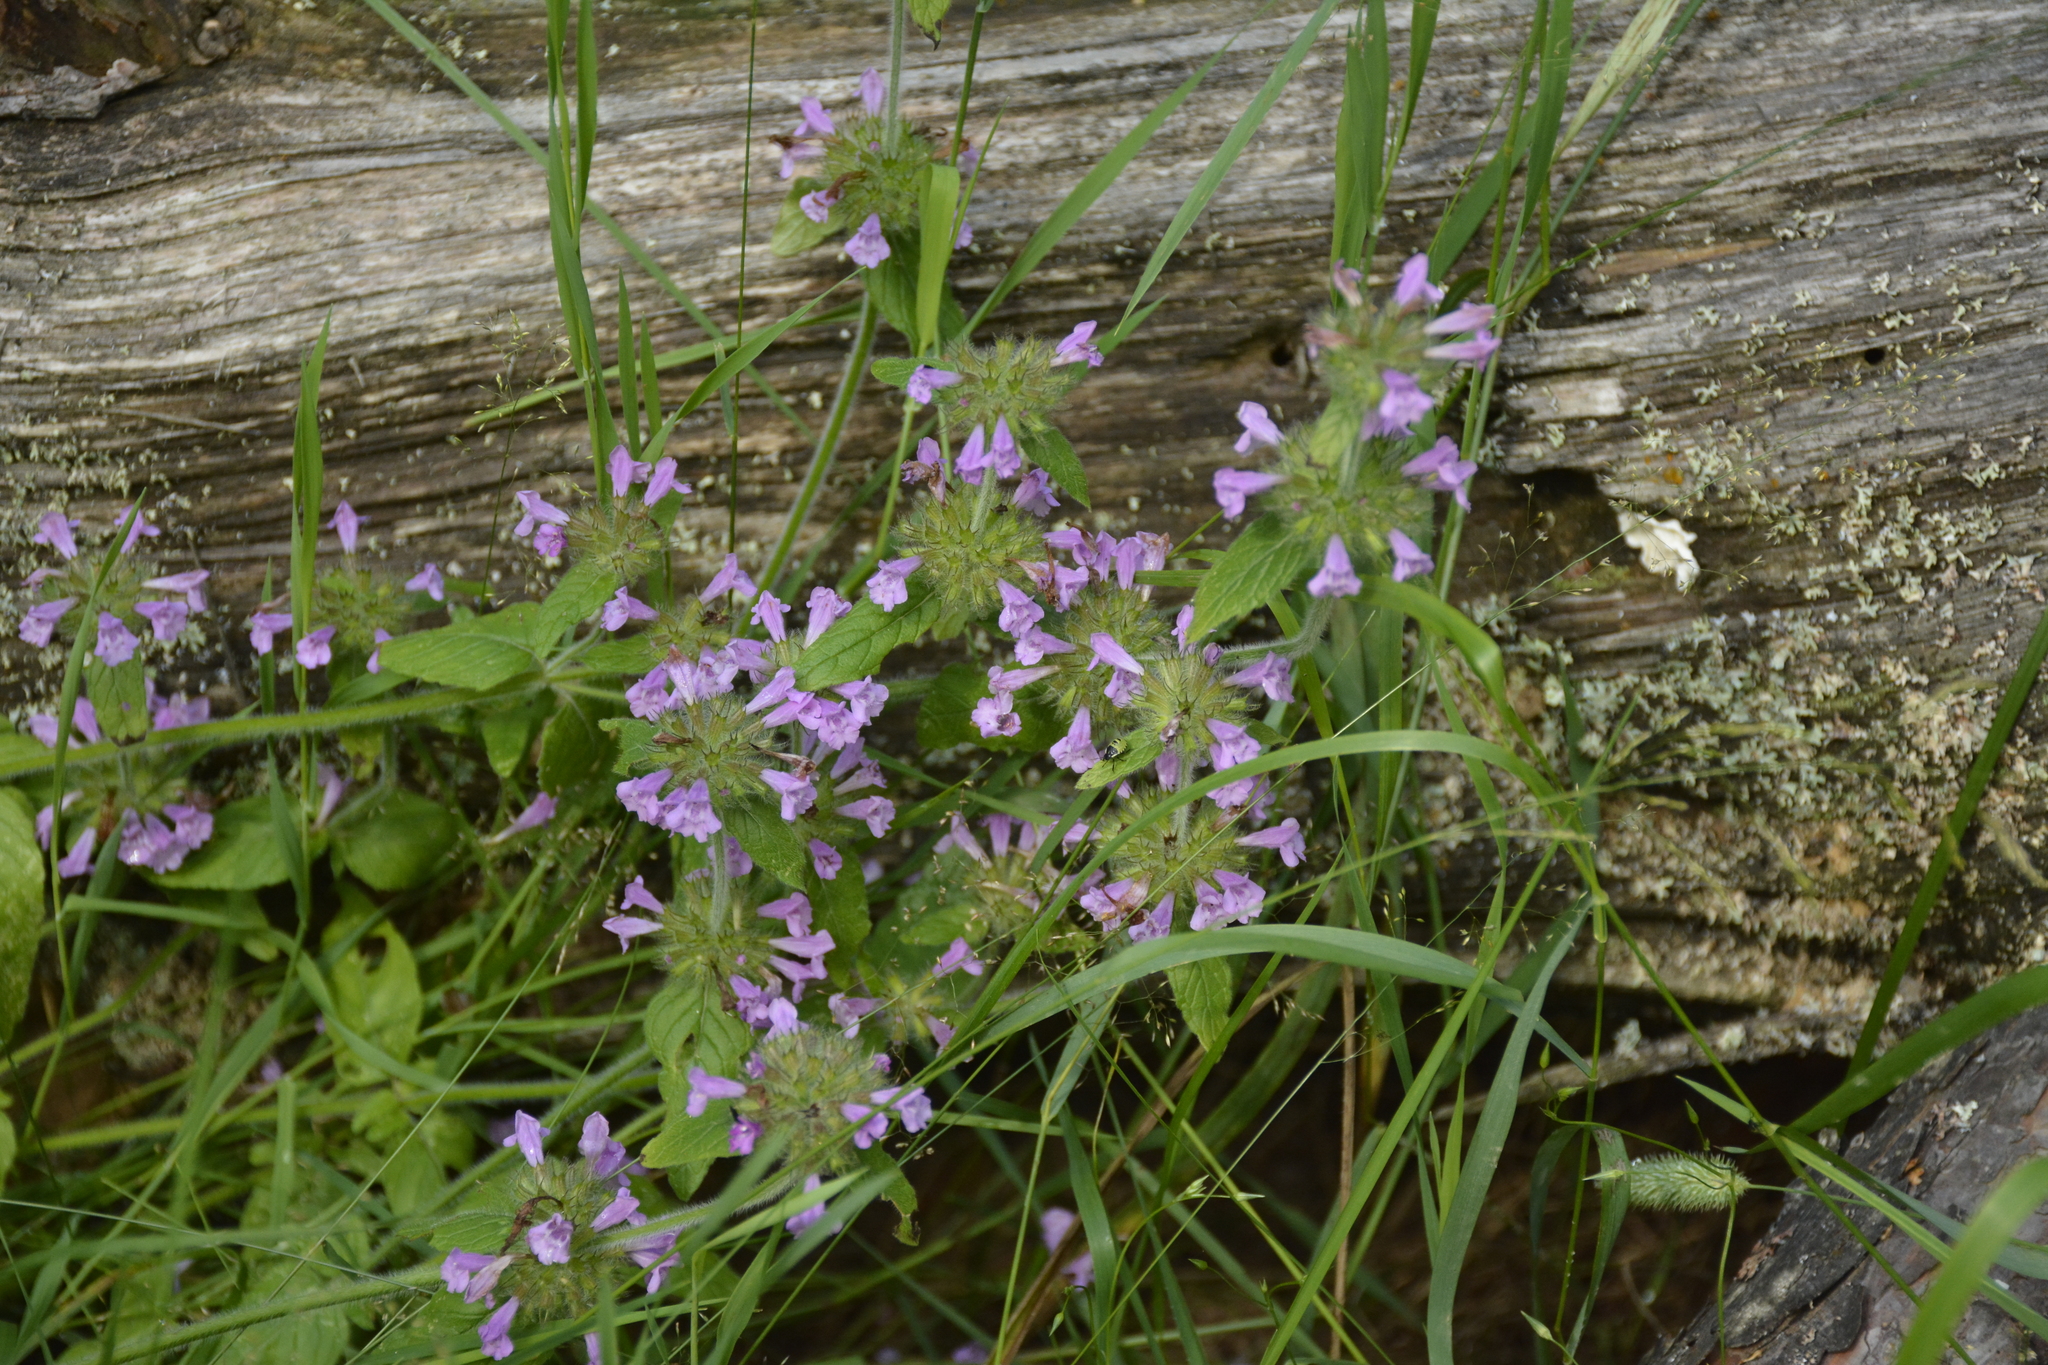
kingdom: Plantae
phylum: Tracheophyta
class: Magnoliopsida
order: Lamiales
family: Lamiaceae
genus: Clinopodium
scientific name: Clinopodium vulgare
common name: Wild basil
